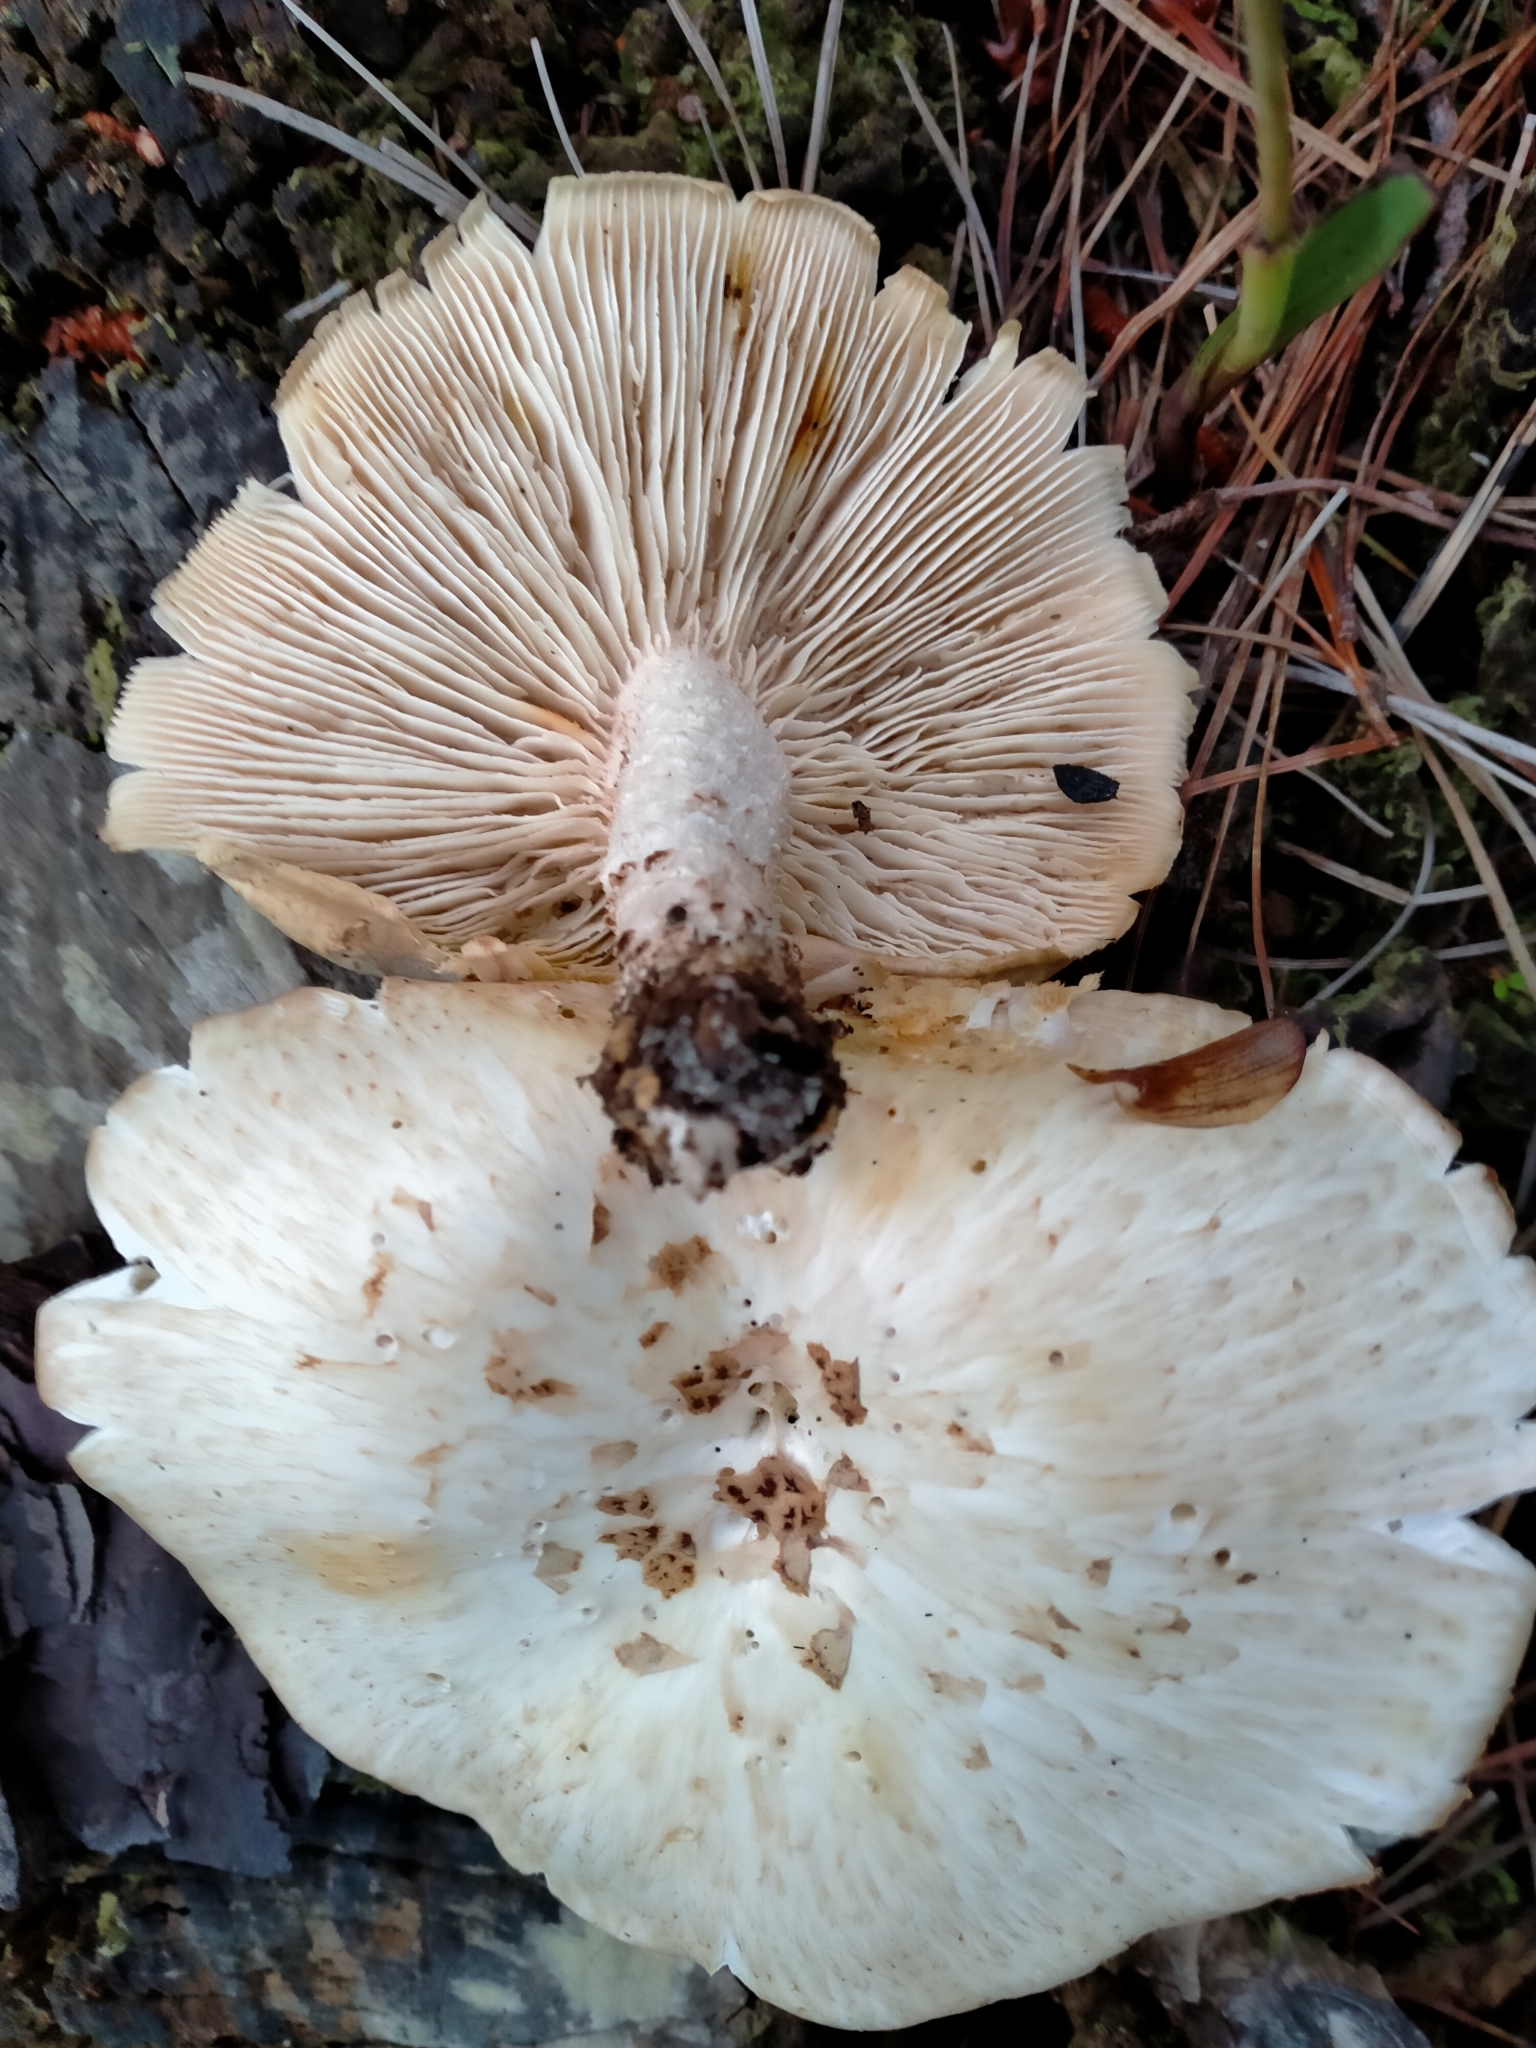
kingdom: Fungi
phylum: Basidiomycota
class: Agaricomycetes
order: Gloeophyllales
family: Gloeophyllaceae
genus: Neolentinus
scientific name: Neolentinus lepideus
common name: Scaly sawgill
